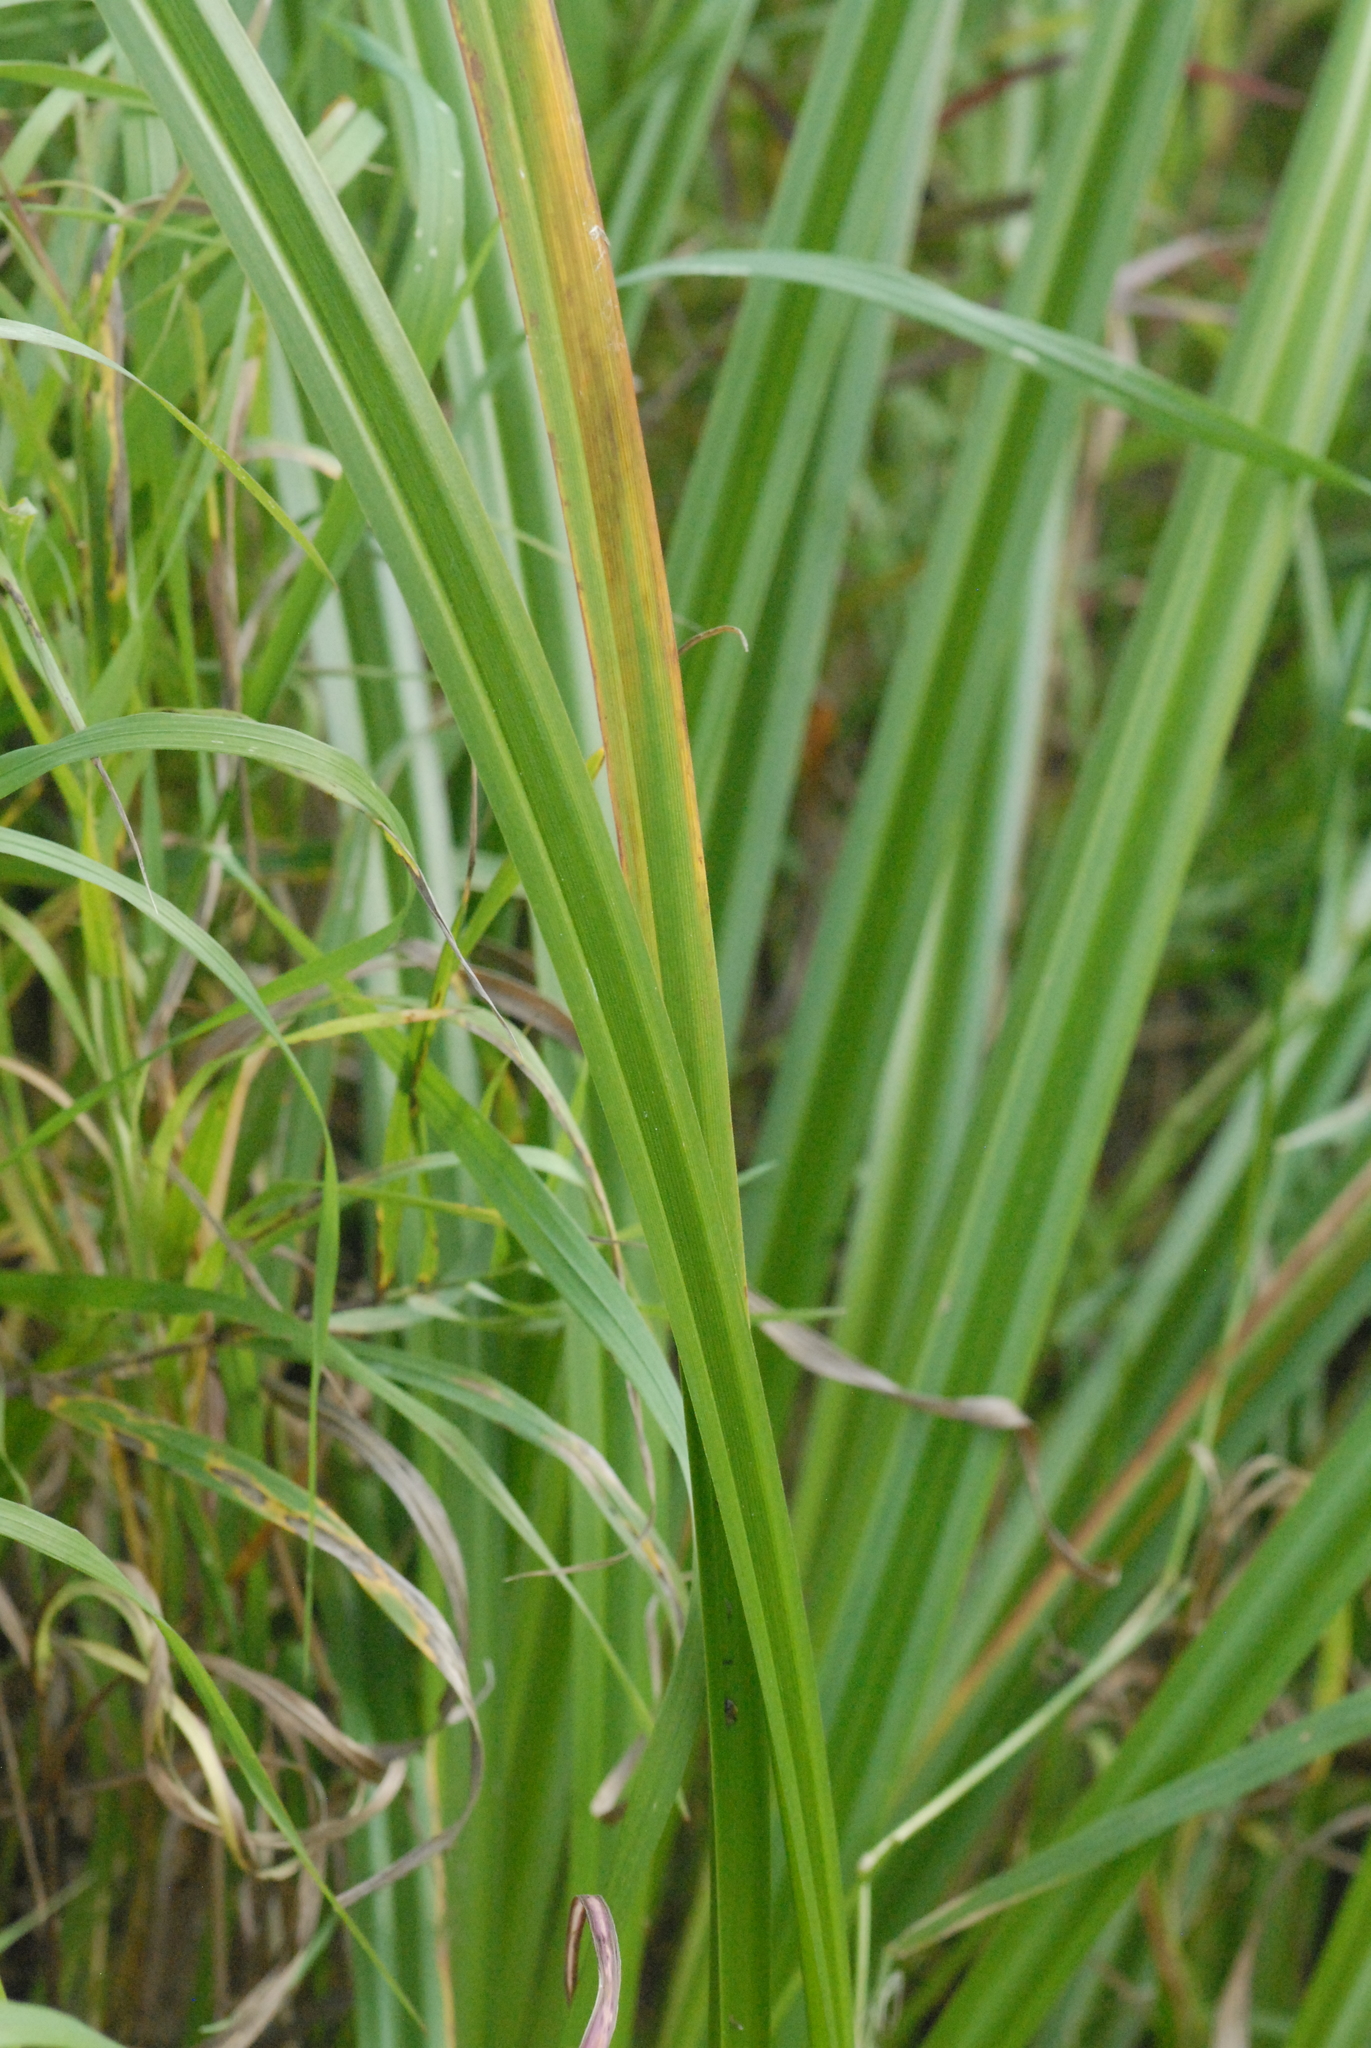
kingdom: Plantae
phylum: Tracheophyta
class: Liliopsida
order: Poales
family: Cyperaceae
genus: Scirpus
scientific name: Scirpus sylvaticus
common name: Wood club-rush
